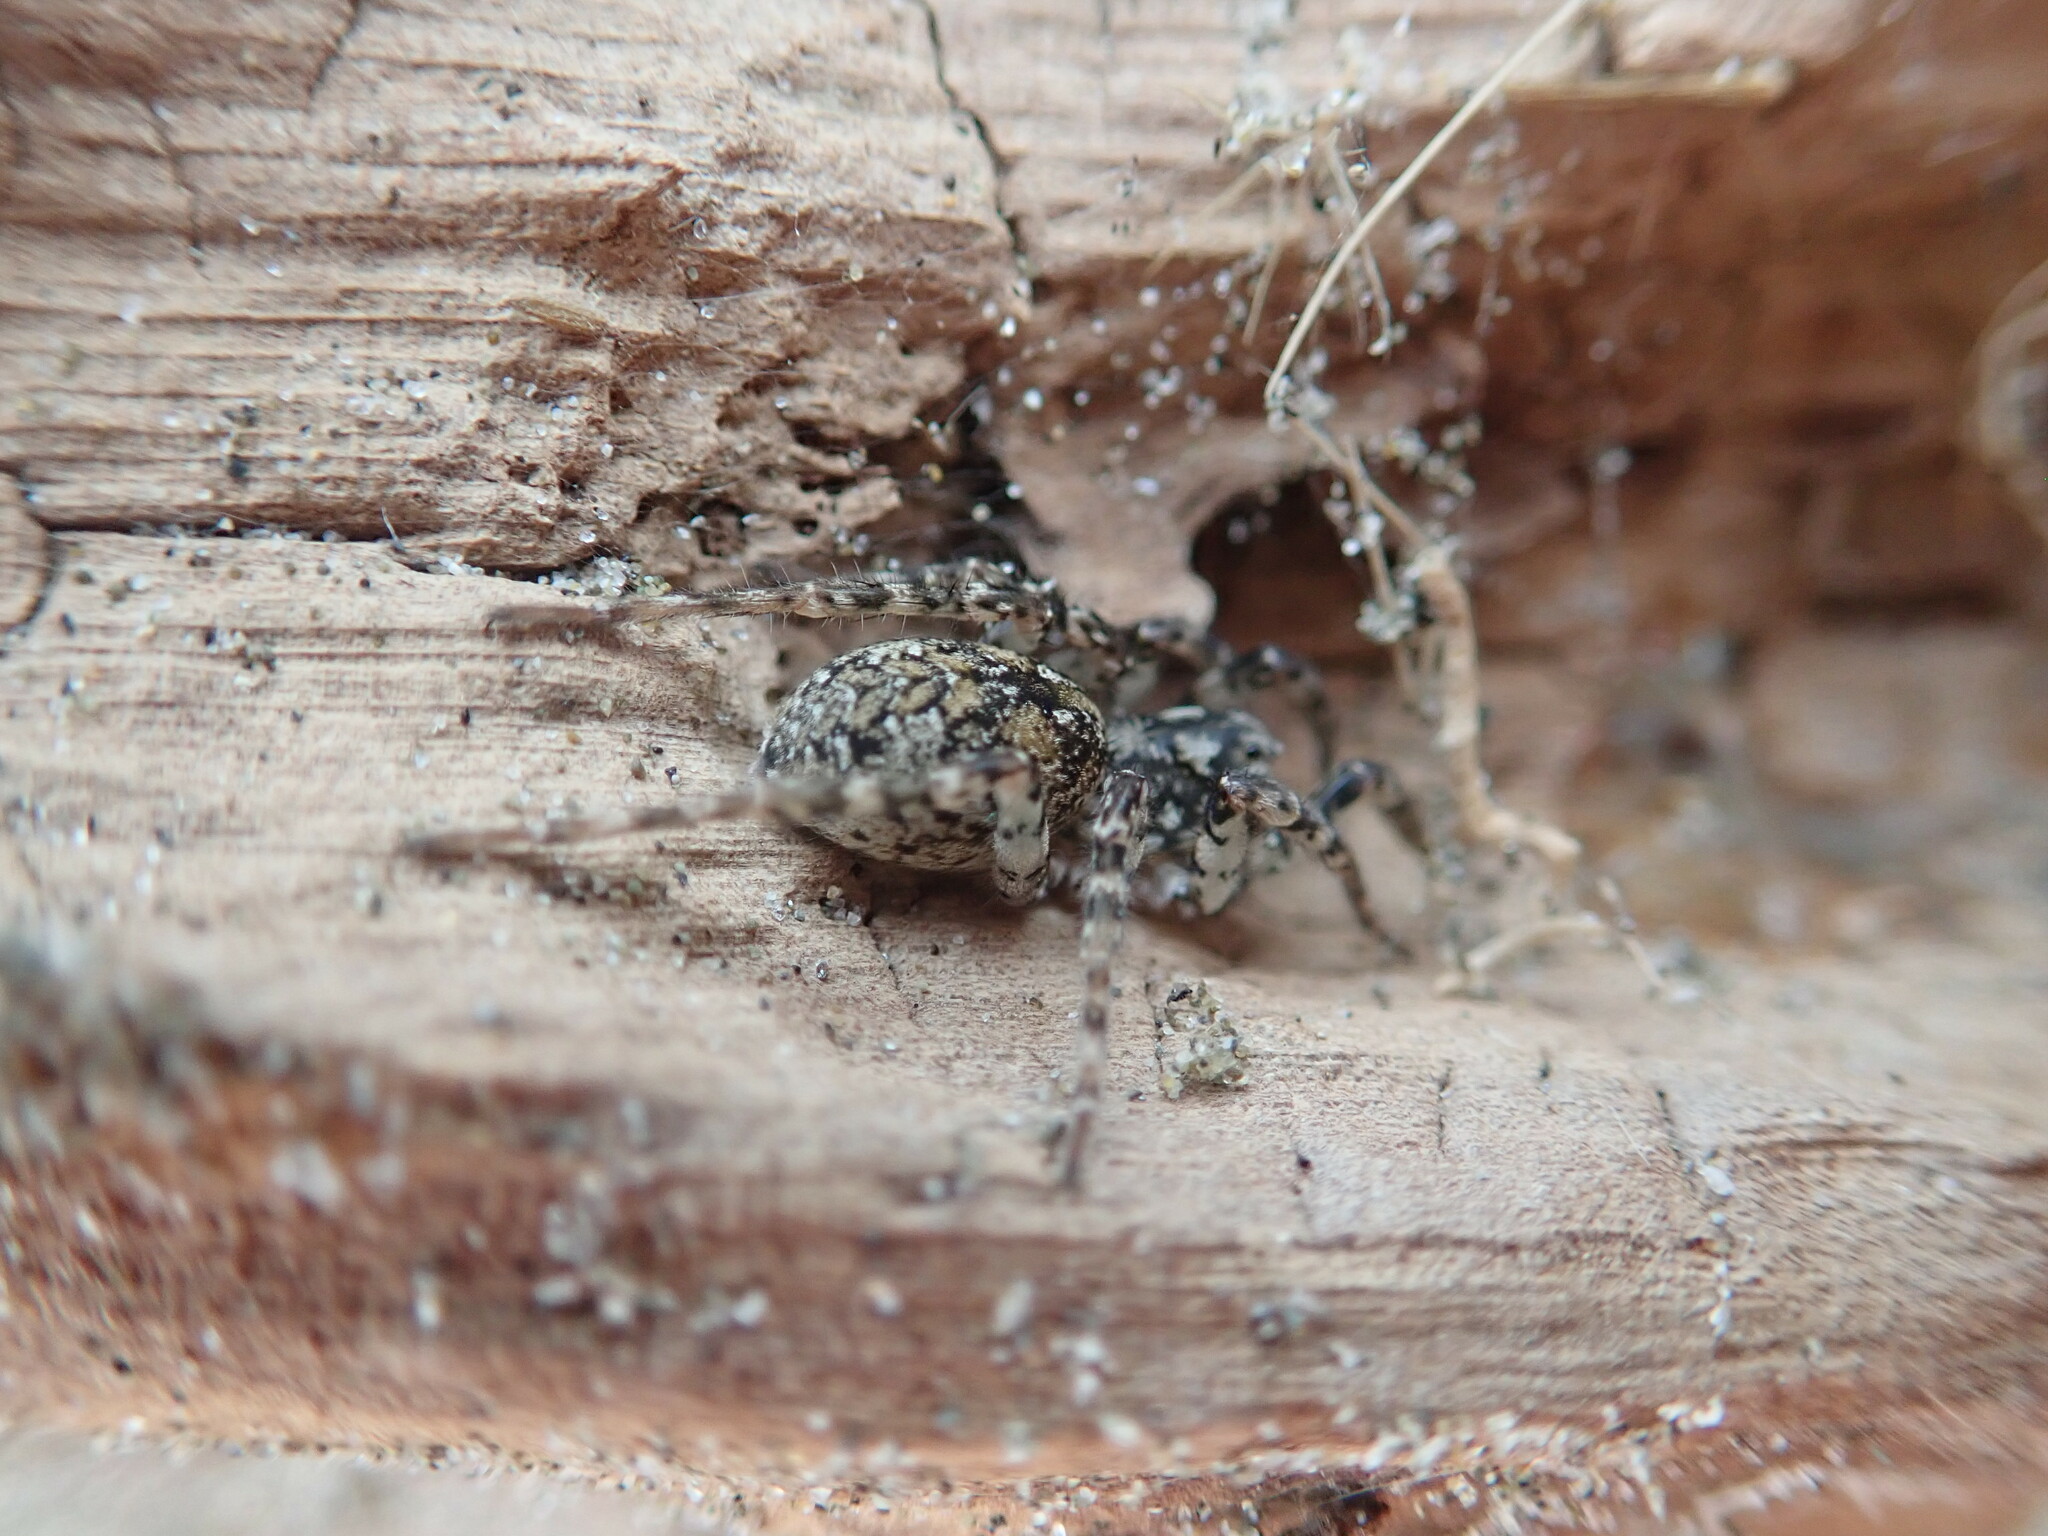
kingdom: Animalia
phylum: Arthropoda
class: Arachnida
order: Araneae
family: Lycosidae
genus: Anoteropsis
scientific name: Anoteropsis litoralis
